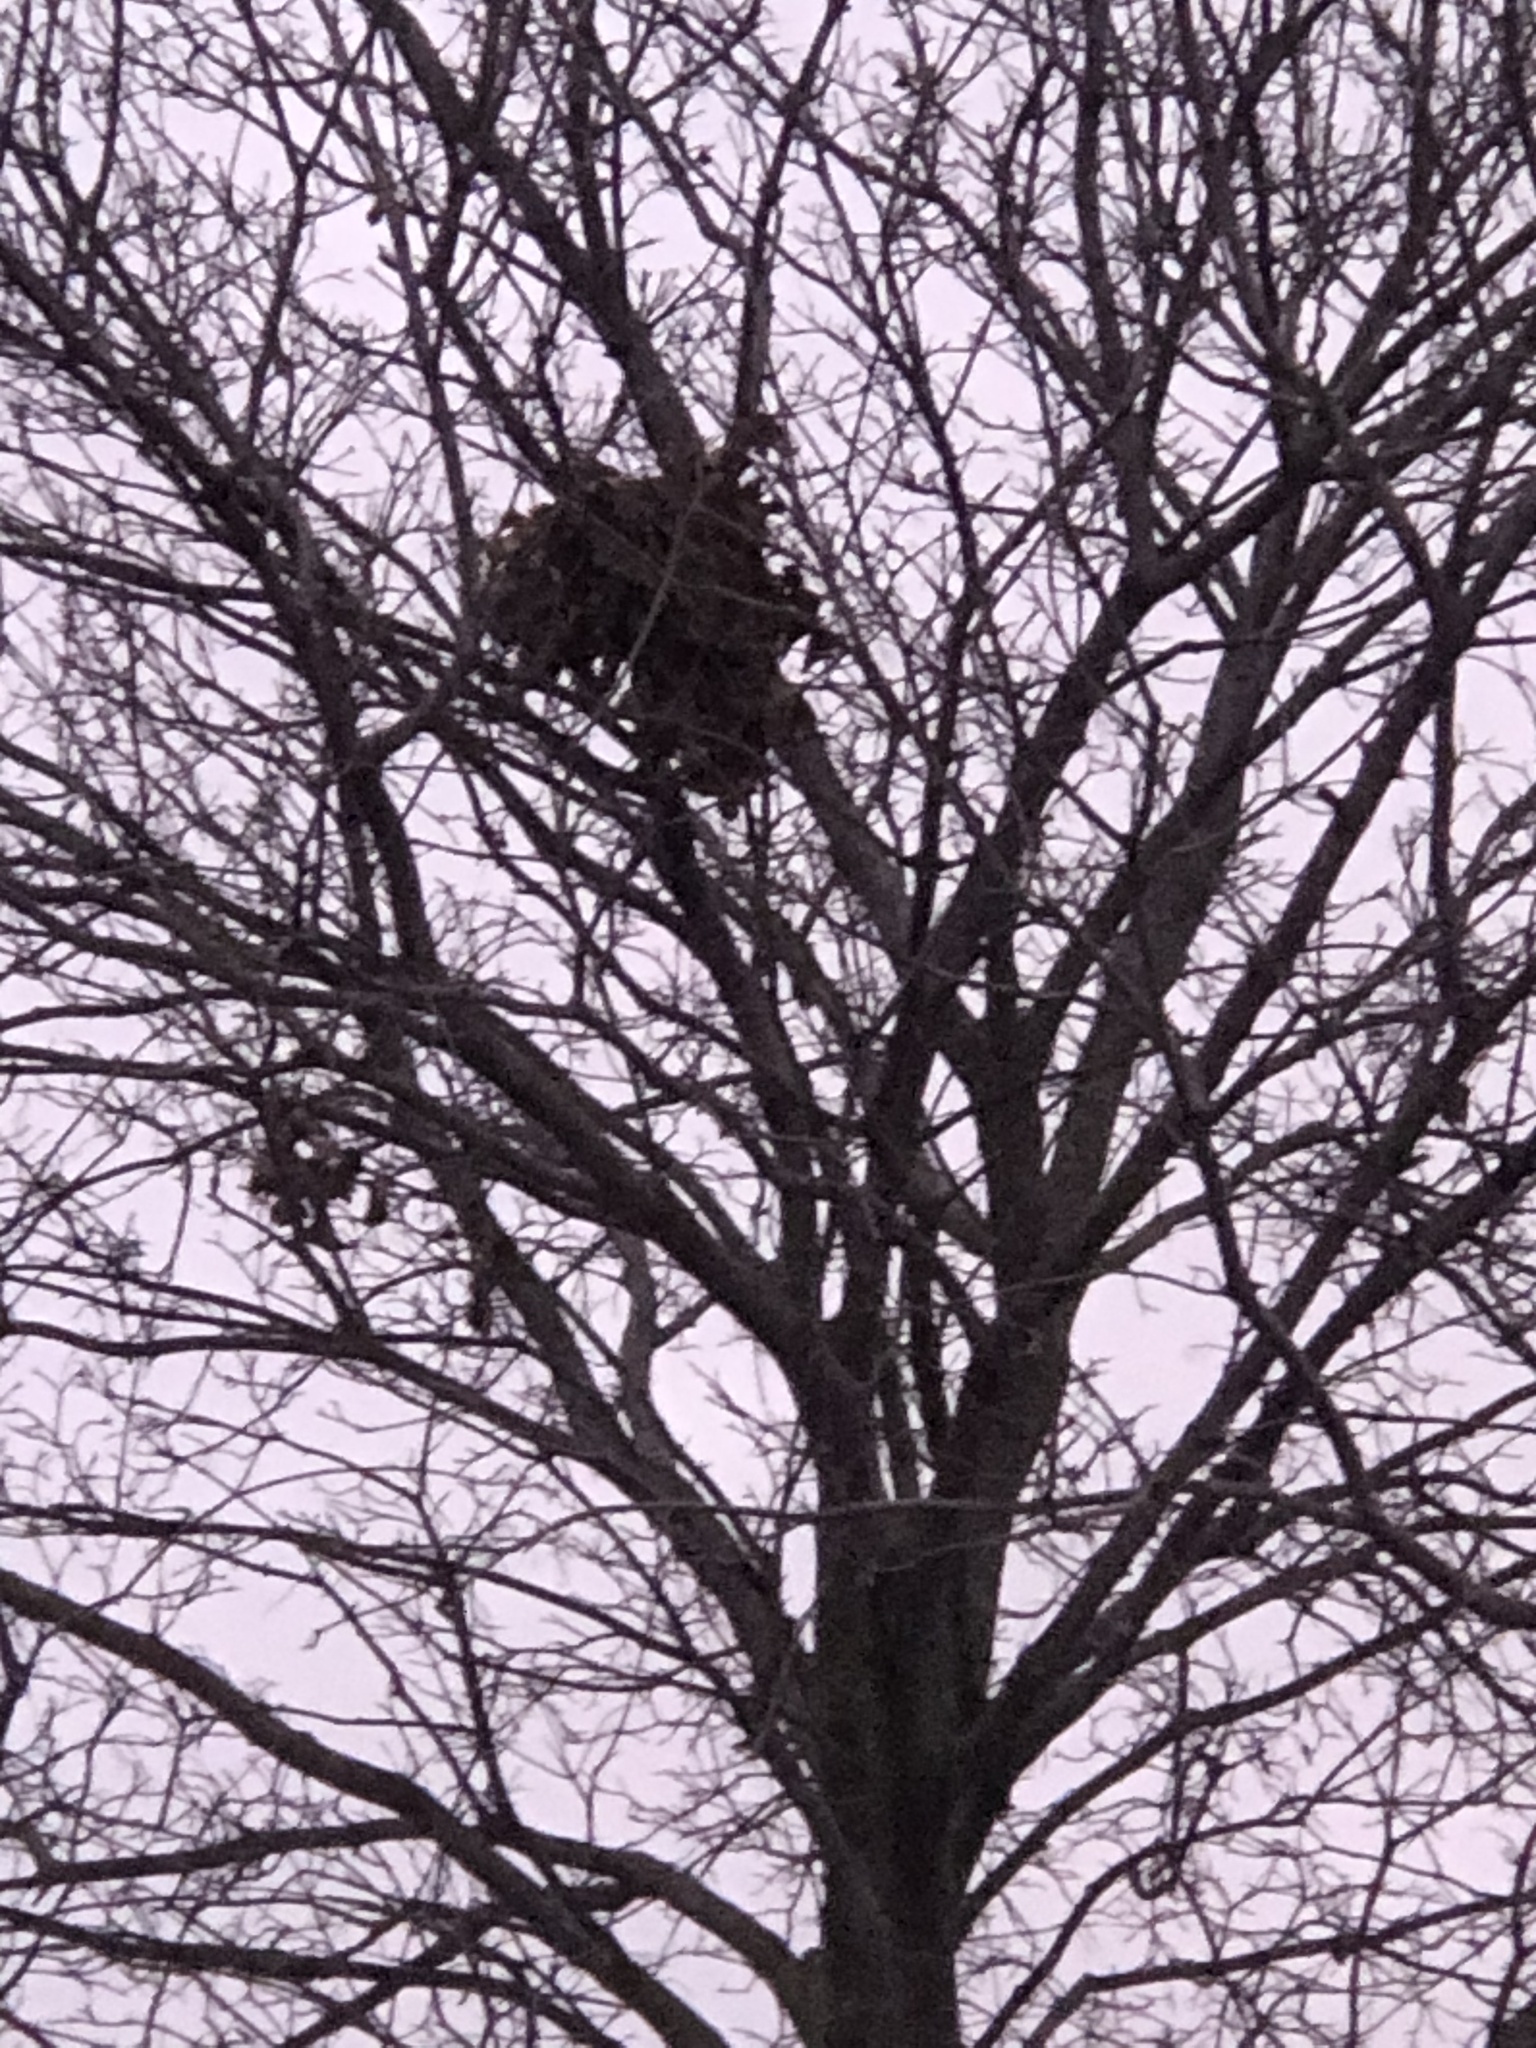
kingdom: Animalia
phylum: Chordata
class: Mammalia
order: Rodentia
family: Sciuridae
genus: Sciurus
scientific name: Sciurus carolinensis
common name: Eastern gray squirrel
